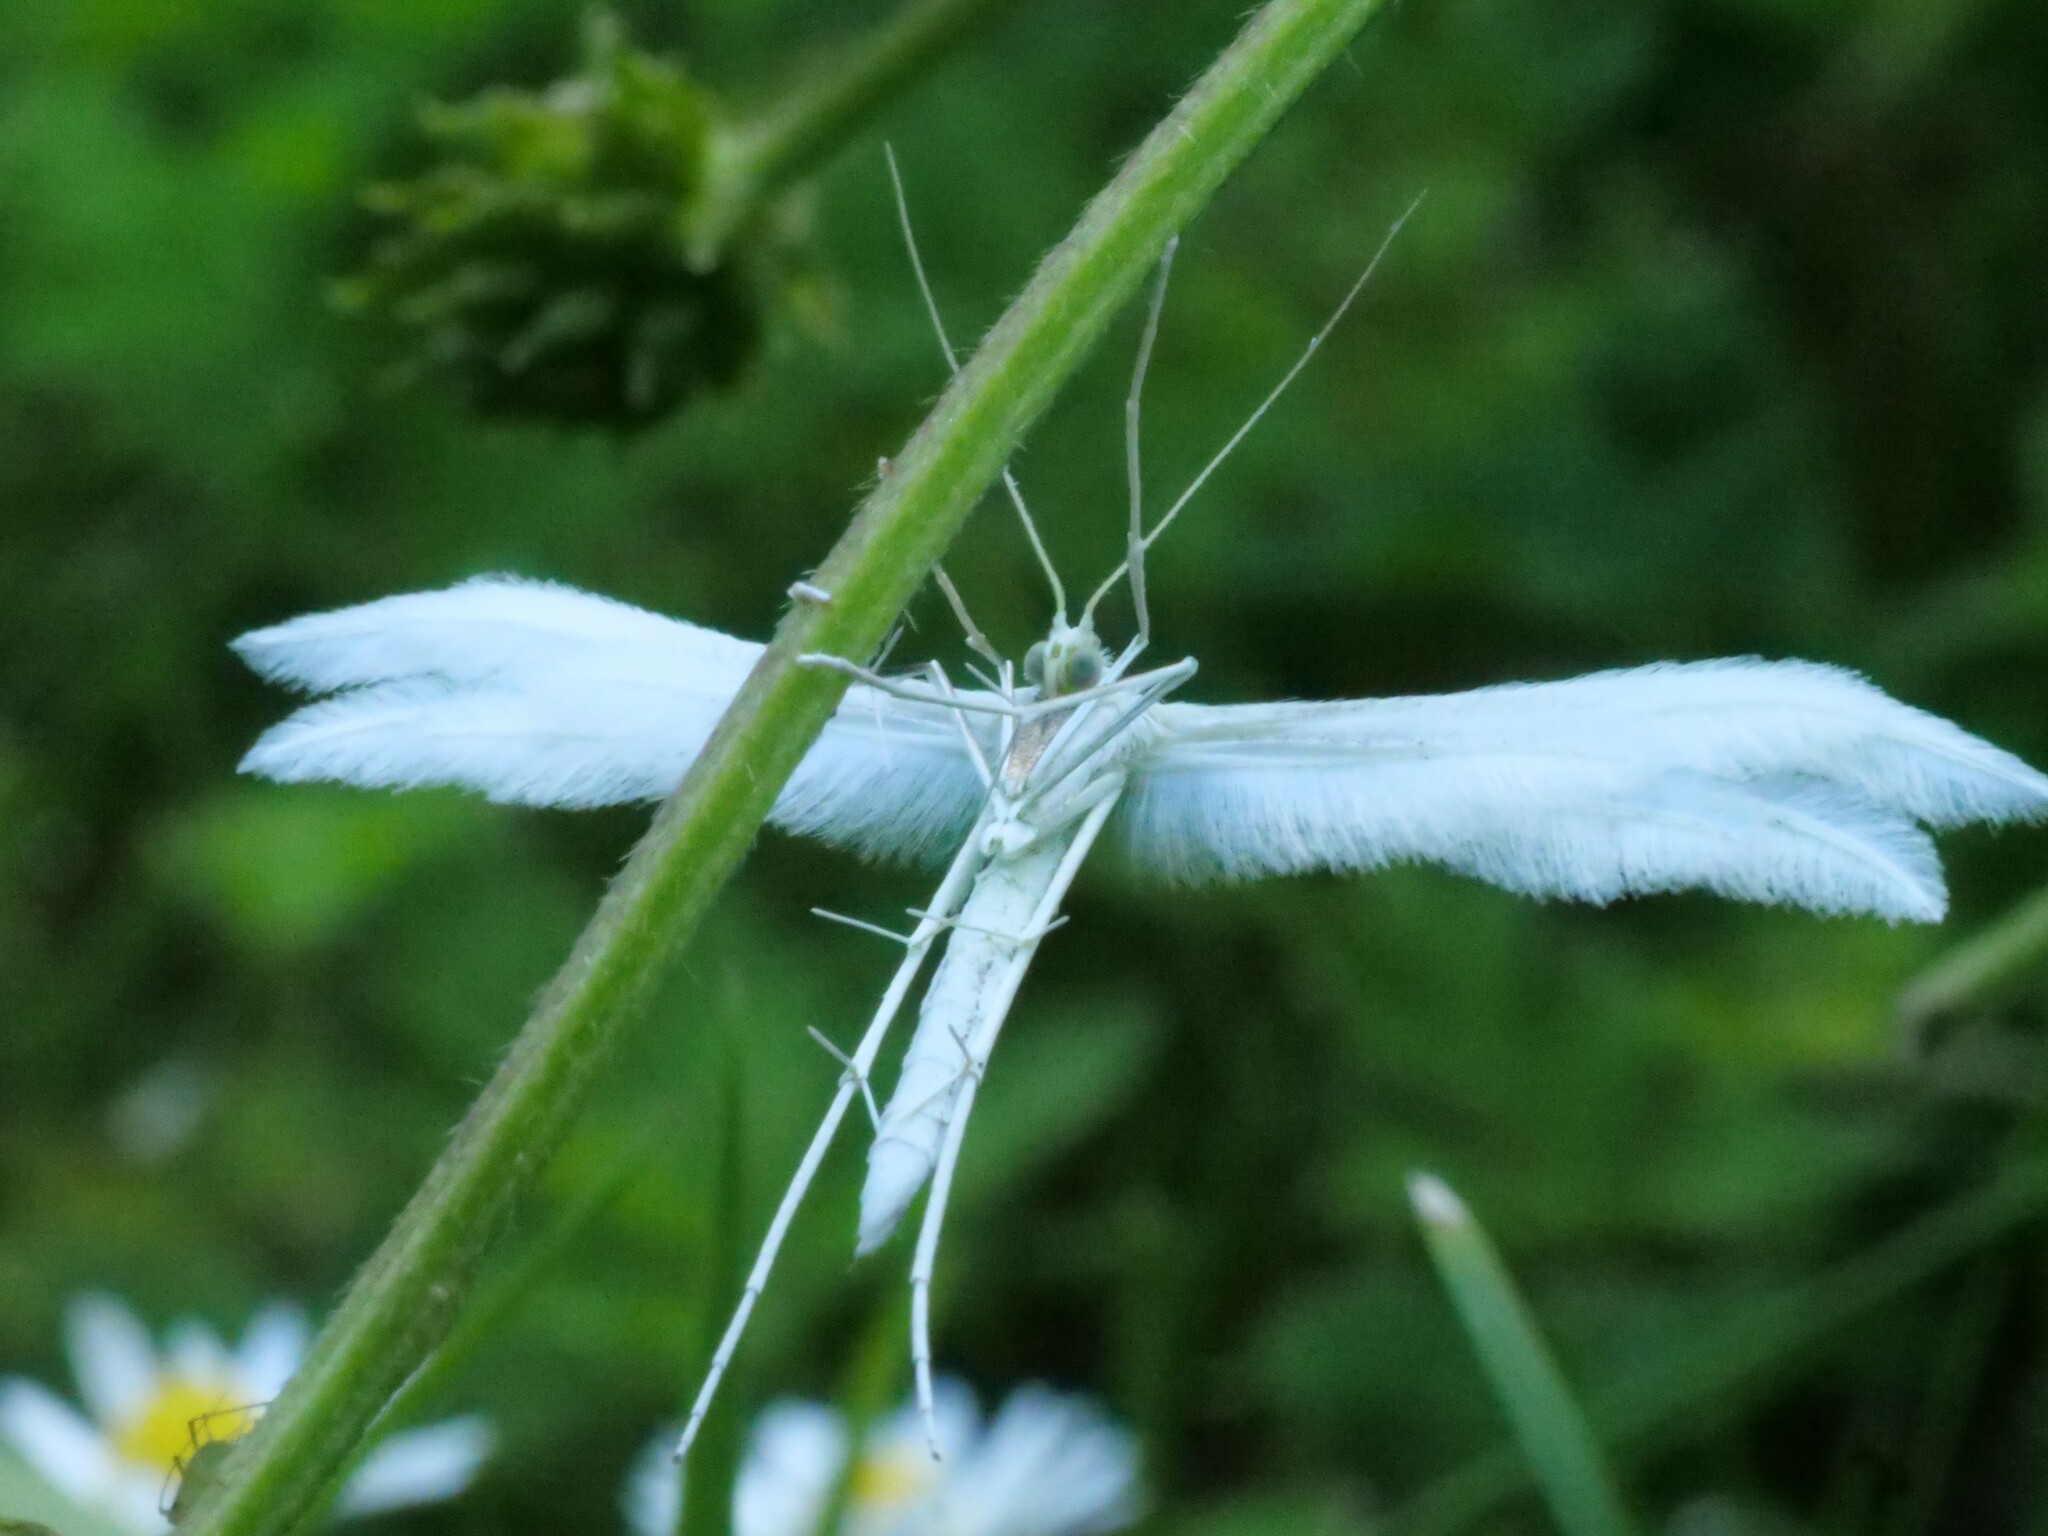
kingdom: Animalia
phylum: Arthropoda
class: Insecta
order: Lepidoptera
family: Pterophoridae
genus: Pterophorus
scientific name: Pterophorus pentadactyla
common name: White plume moth
